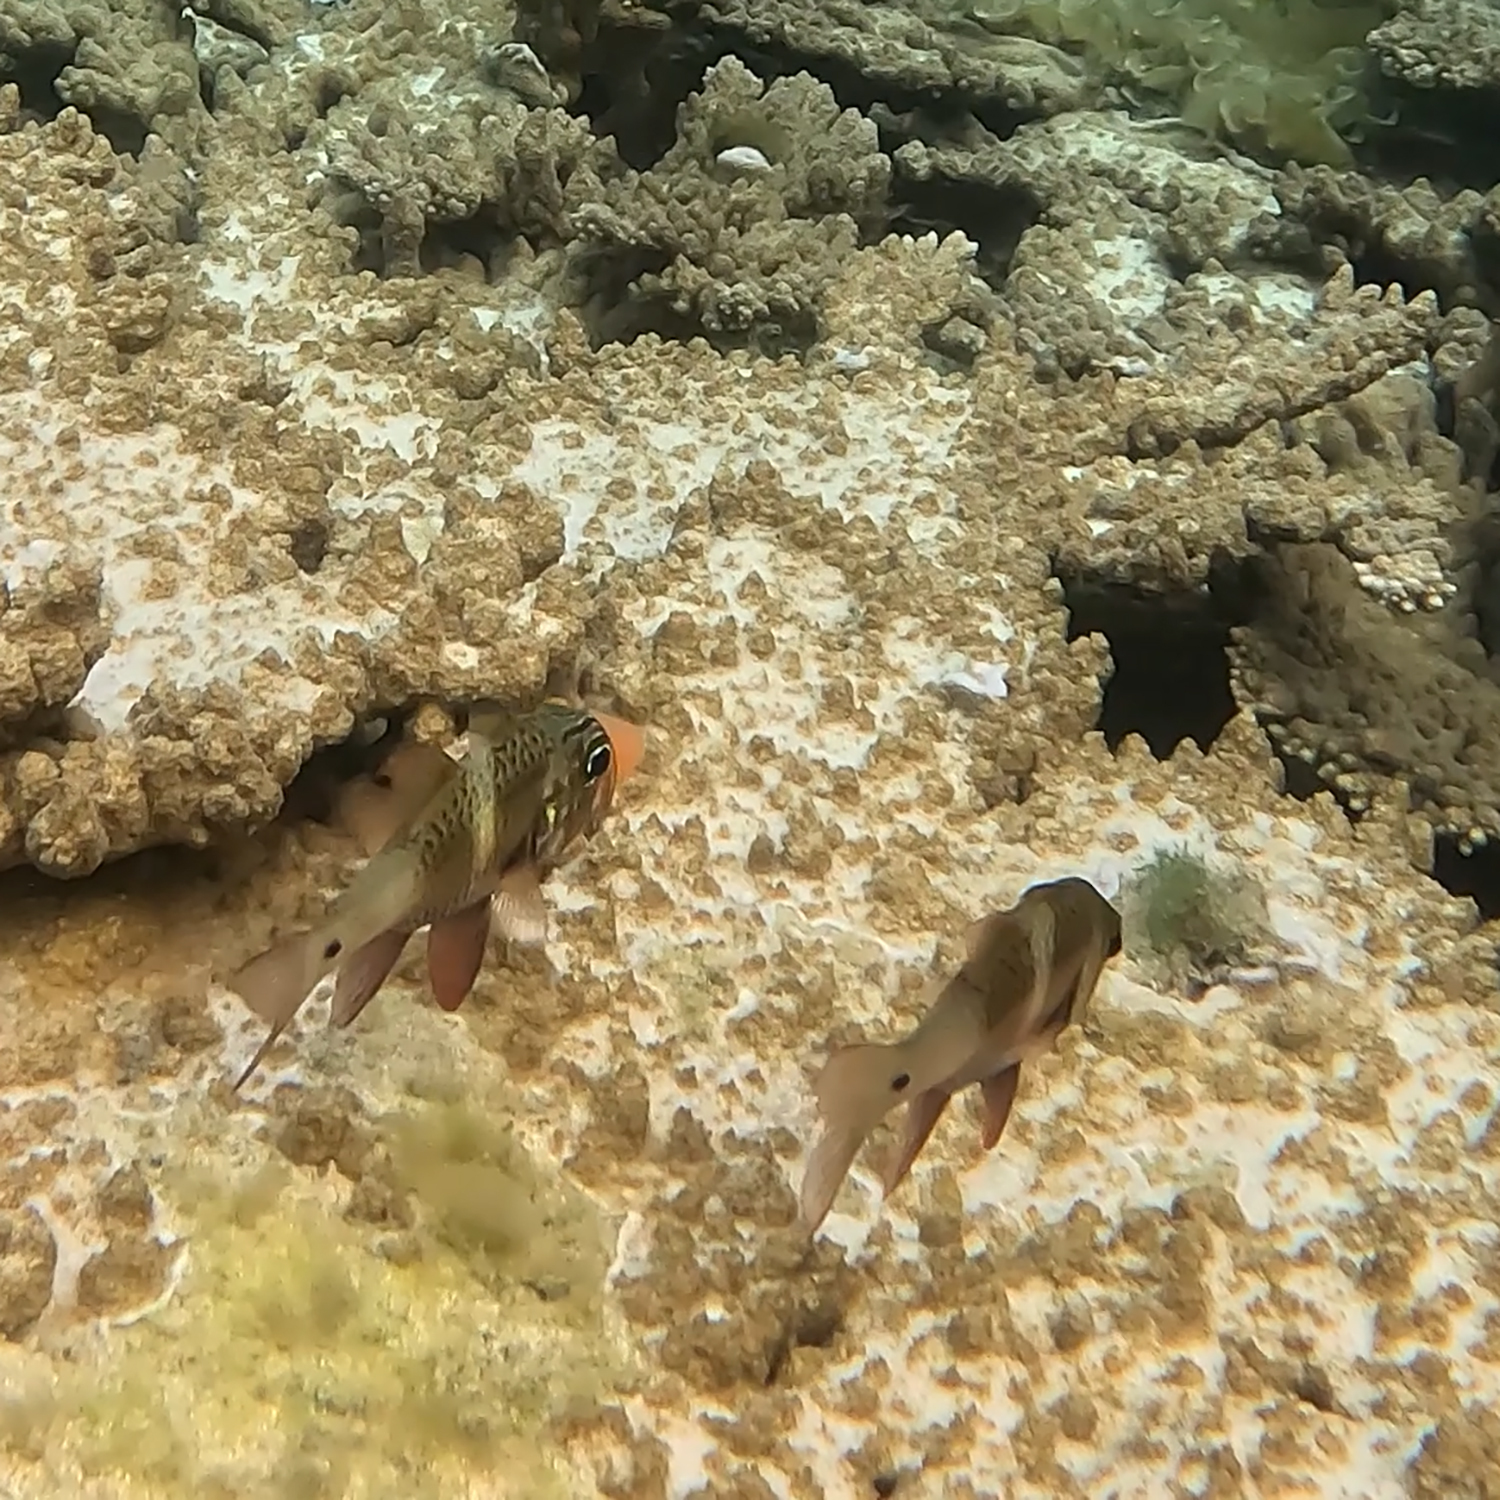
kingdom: Animalia
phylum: Chordata
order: Perciformes
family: Apogonidae
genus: Ostorhinchus
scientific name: Ostorhinchus norfolcensis
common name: Norfolk cardinalfish
